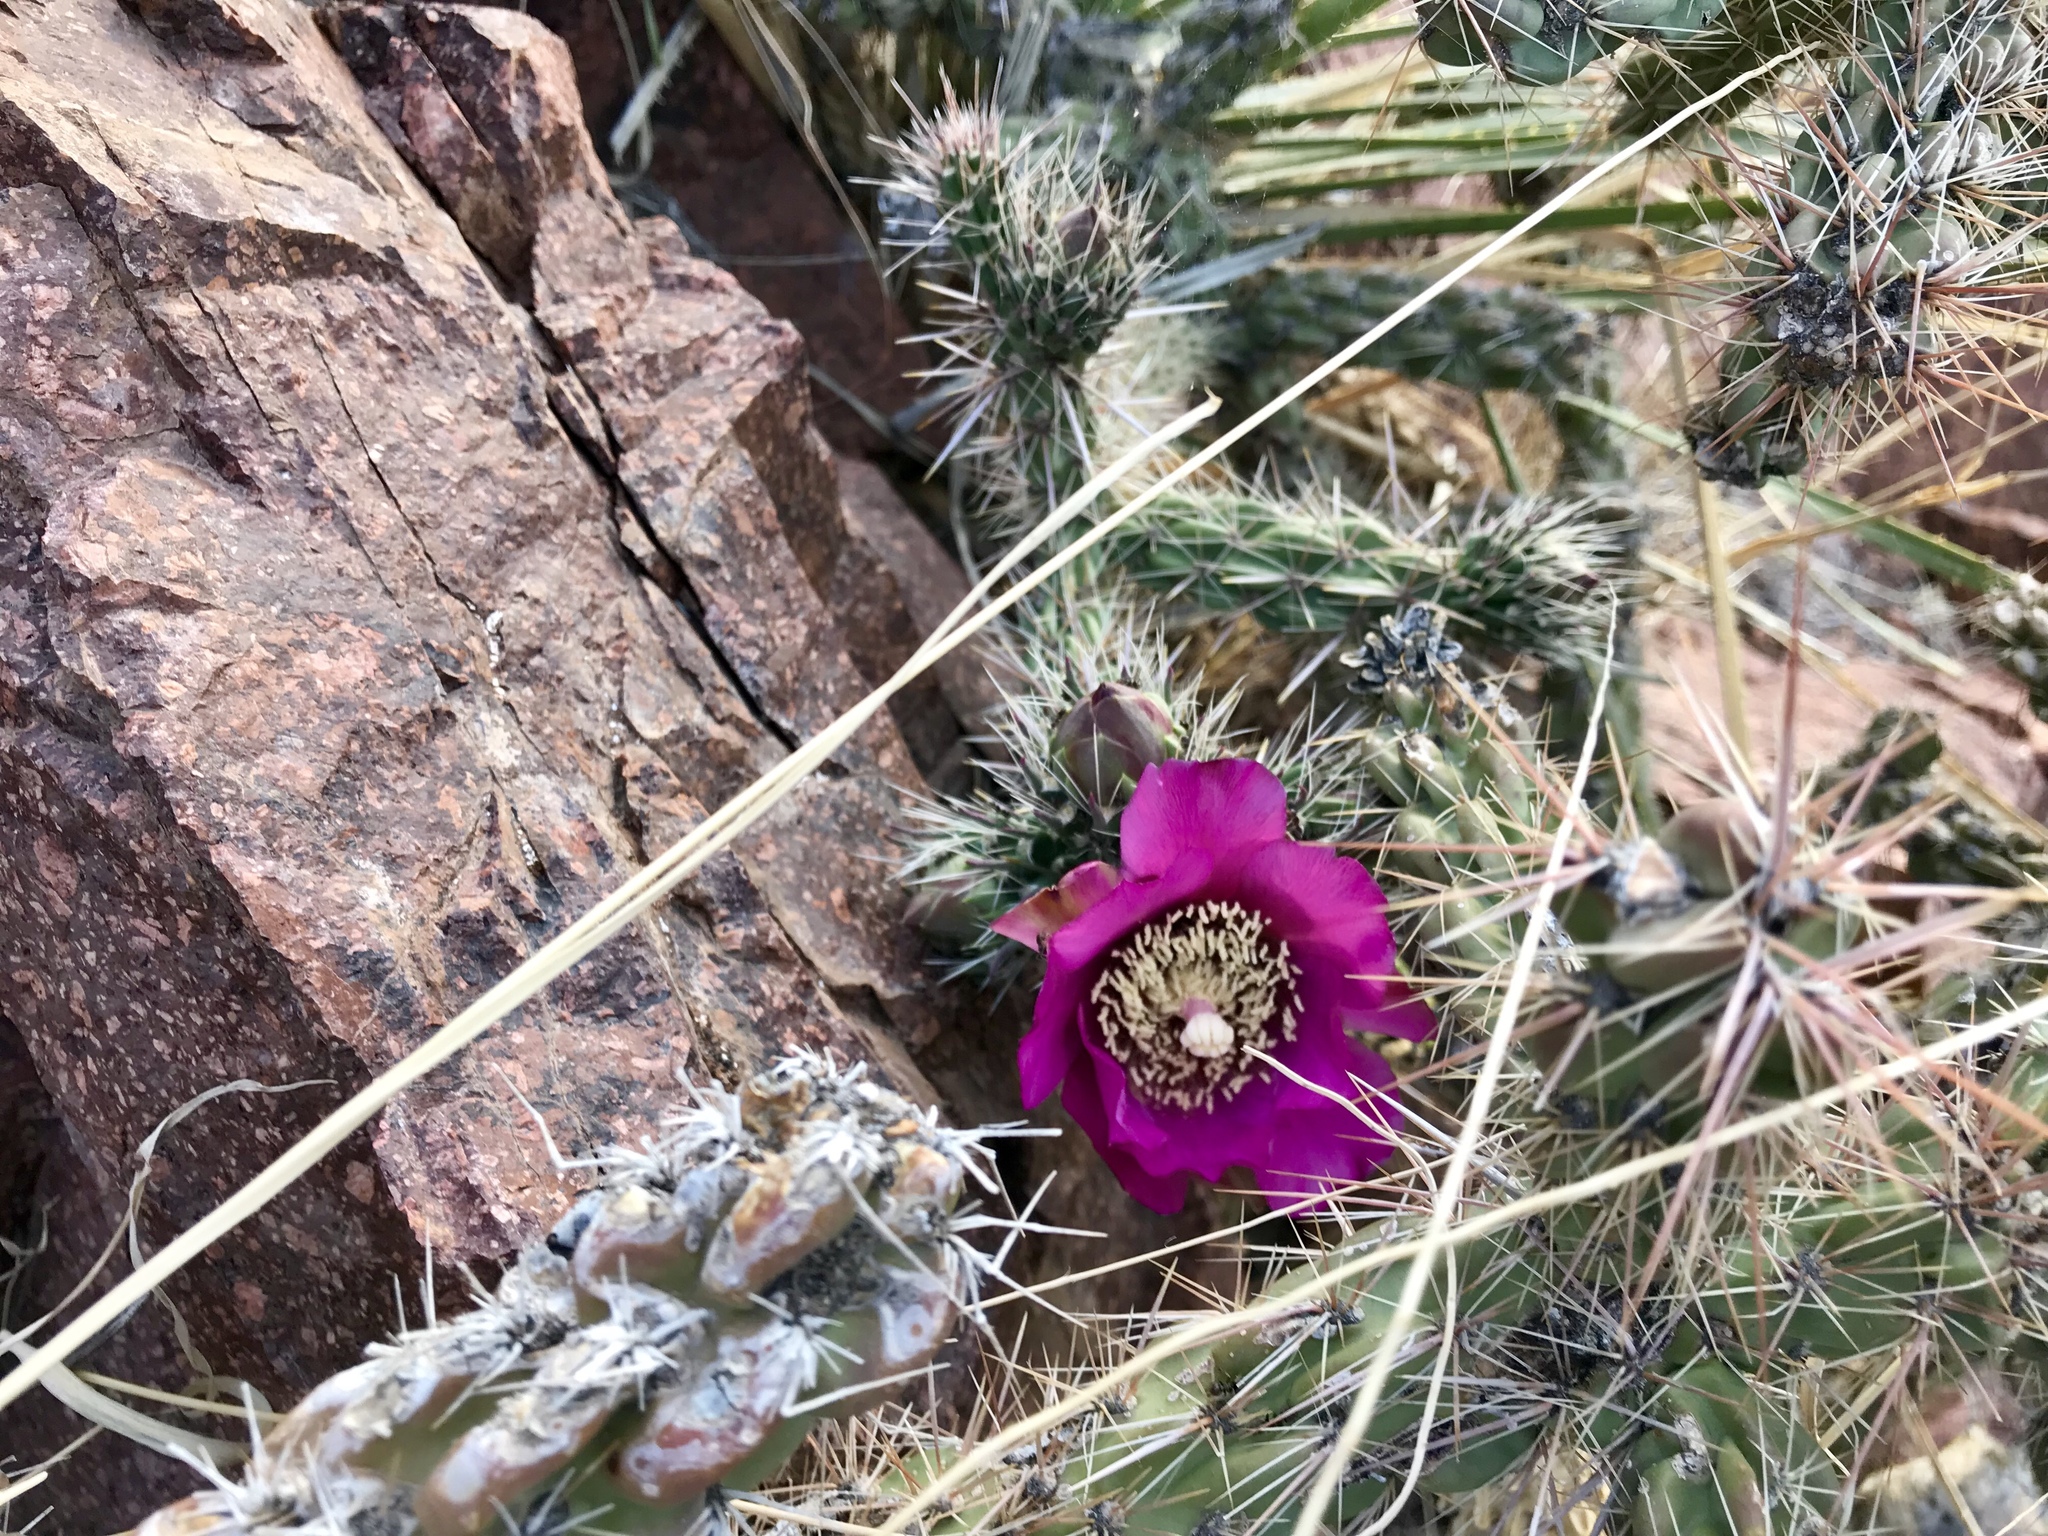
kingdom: Plantae
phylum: Tracheophyta
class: Magnoliopsida
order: Caryophyllales
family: Cactaceae
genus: Cylindropuntia
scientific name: Cylindropuntia imbricata
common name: Candelabrum cactus
